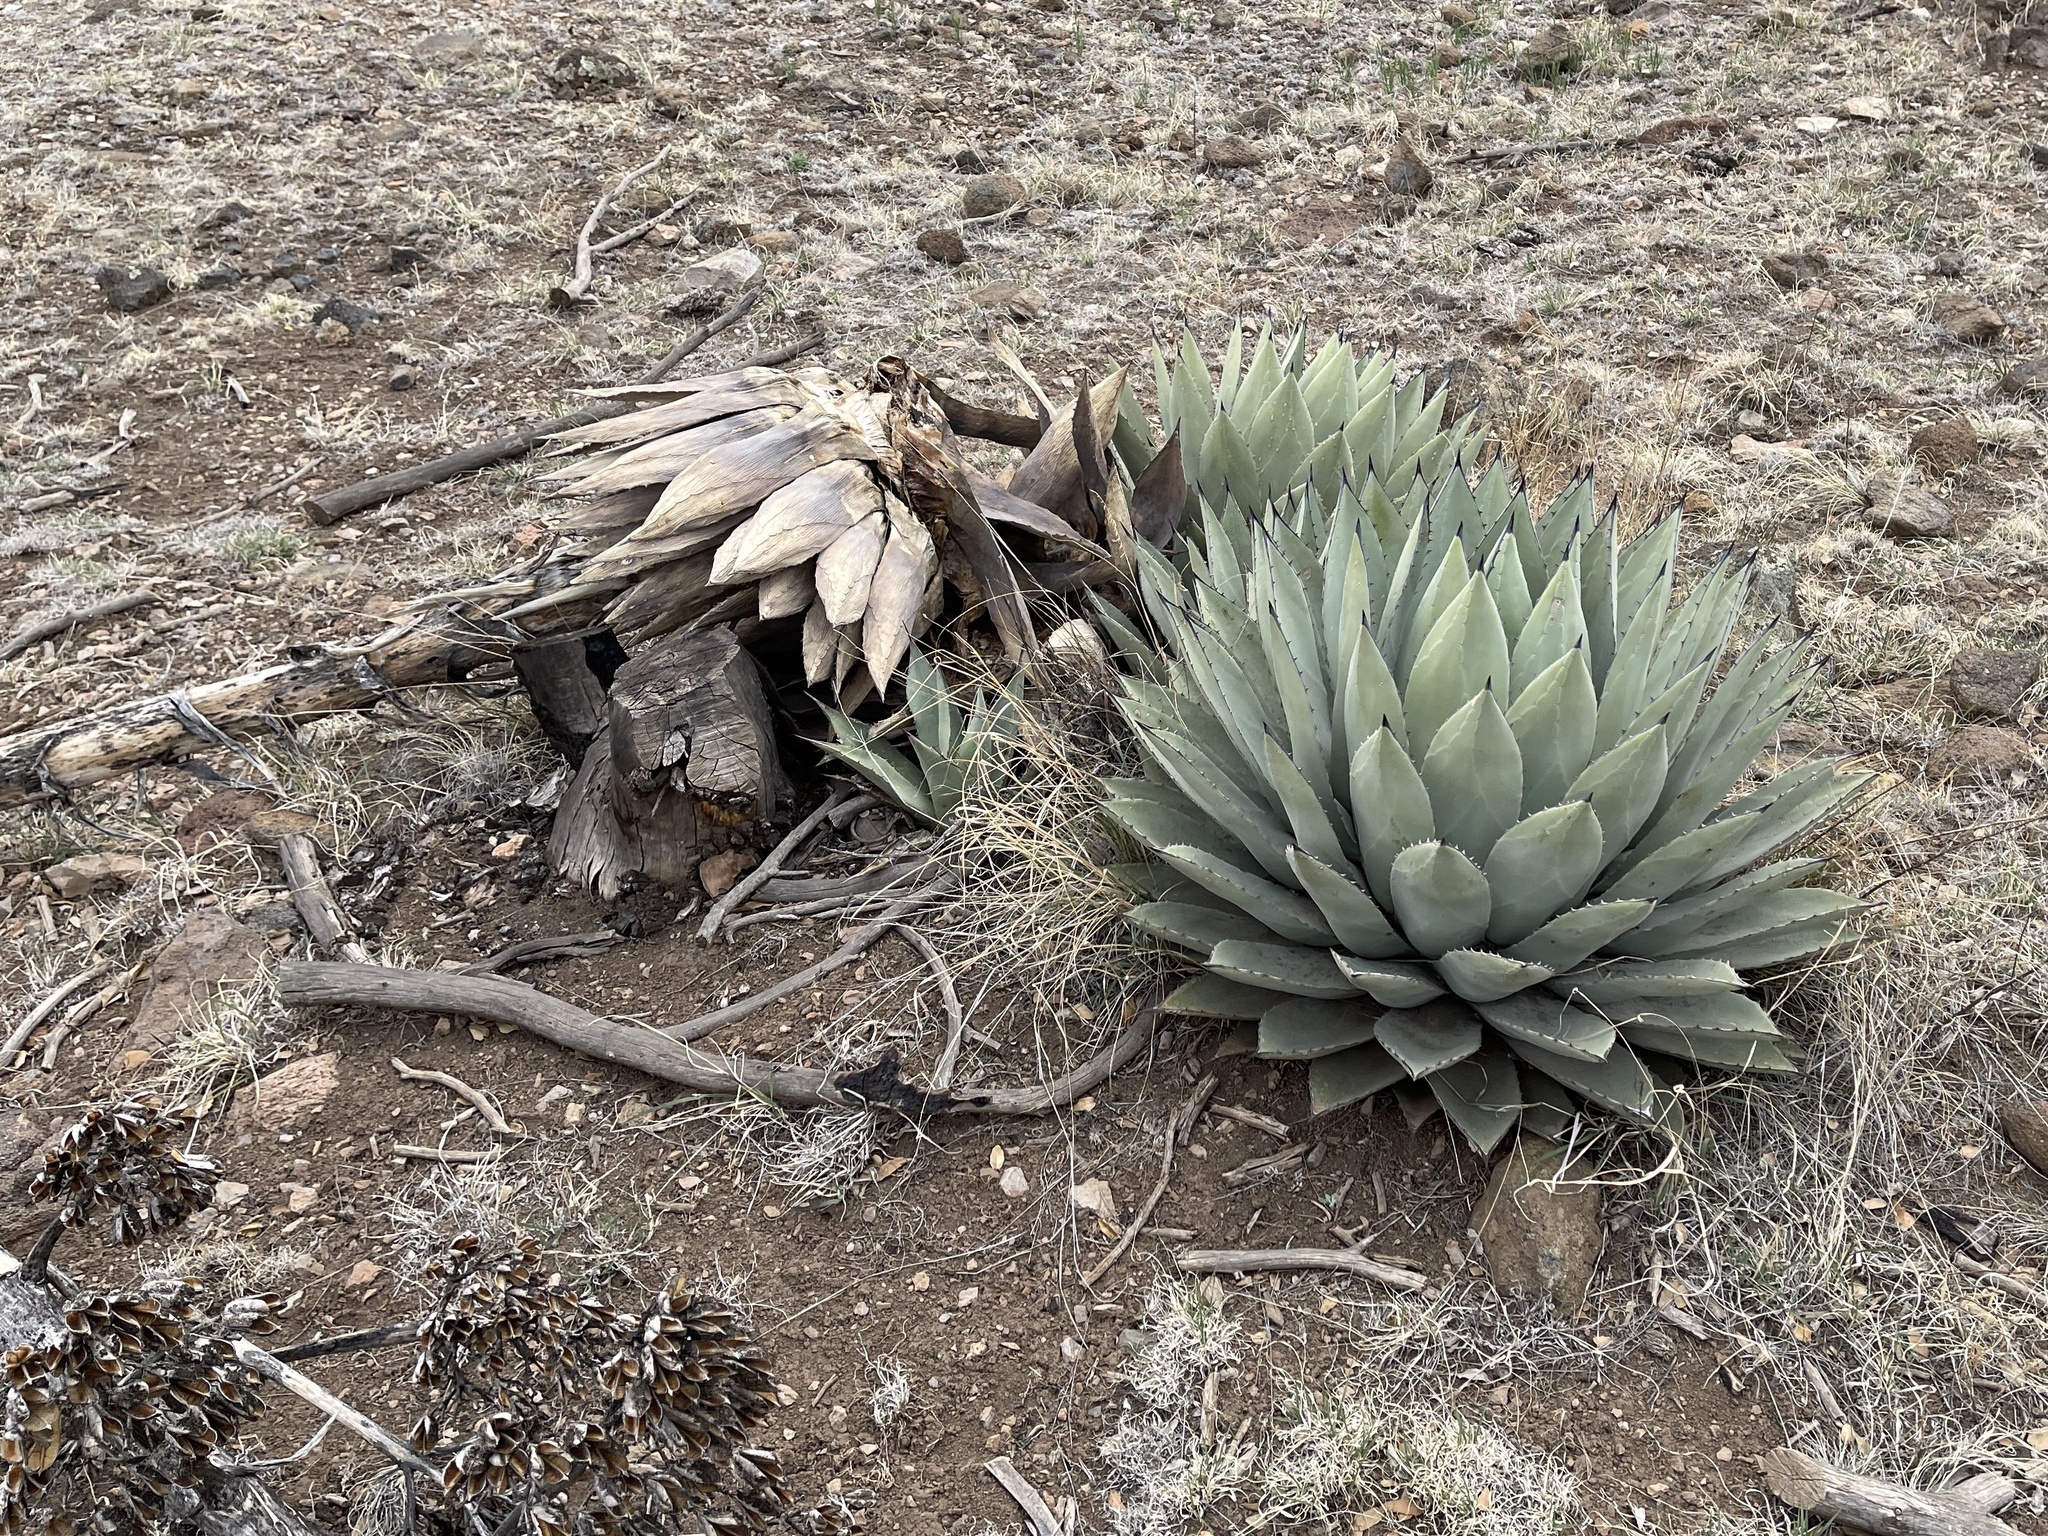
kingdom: Plantae
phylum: Tracheophyta
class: Liliopsida
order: Asparagales
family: Asparagaceae
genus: Agave
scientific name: Agave parryi
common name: Parry's agave
